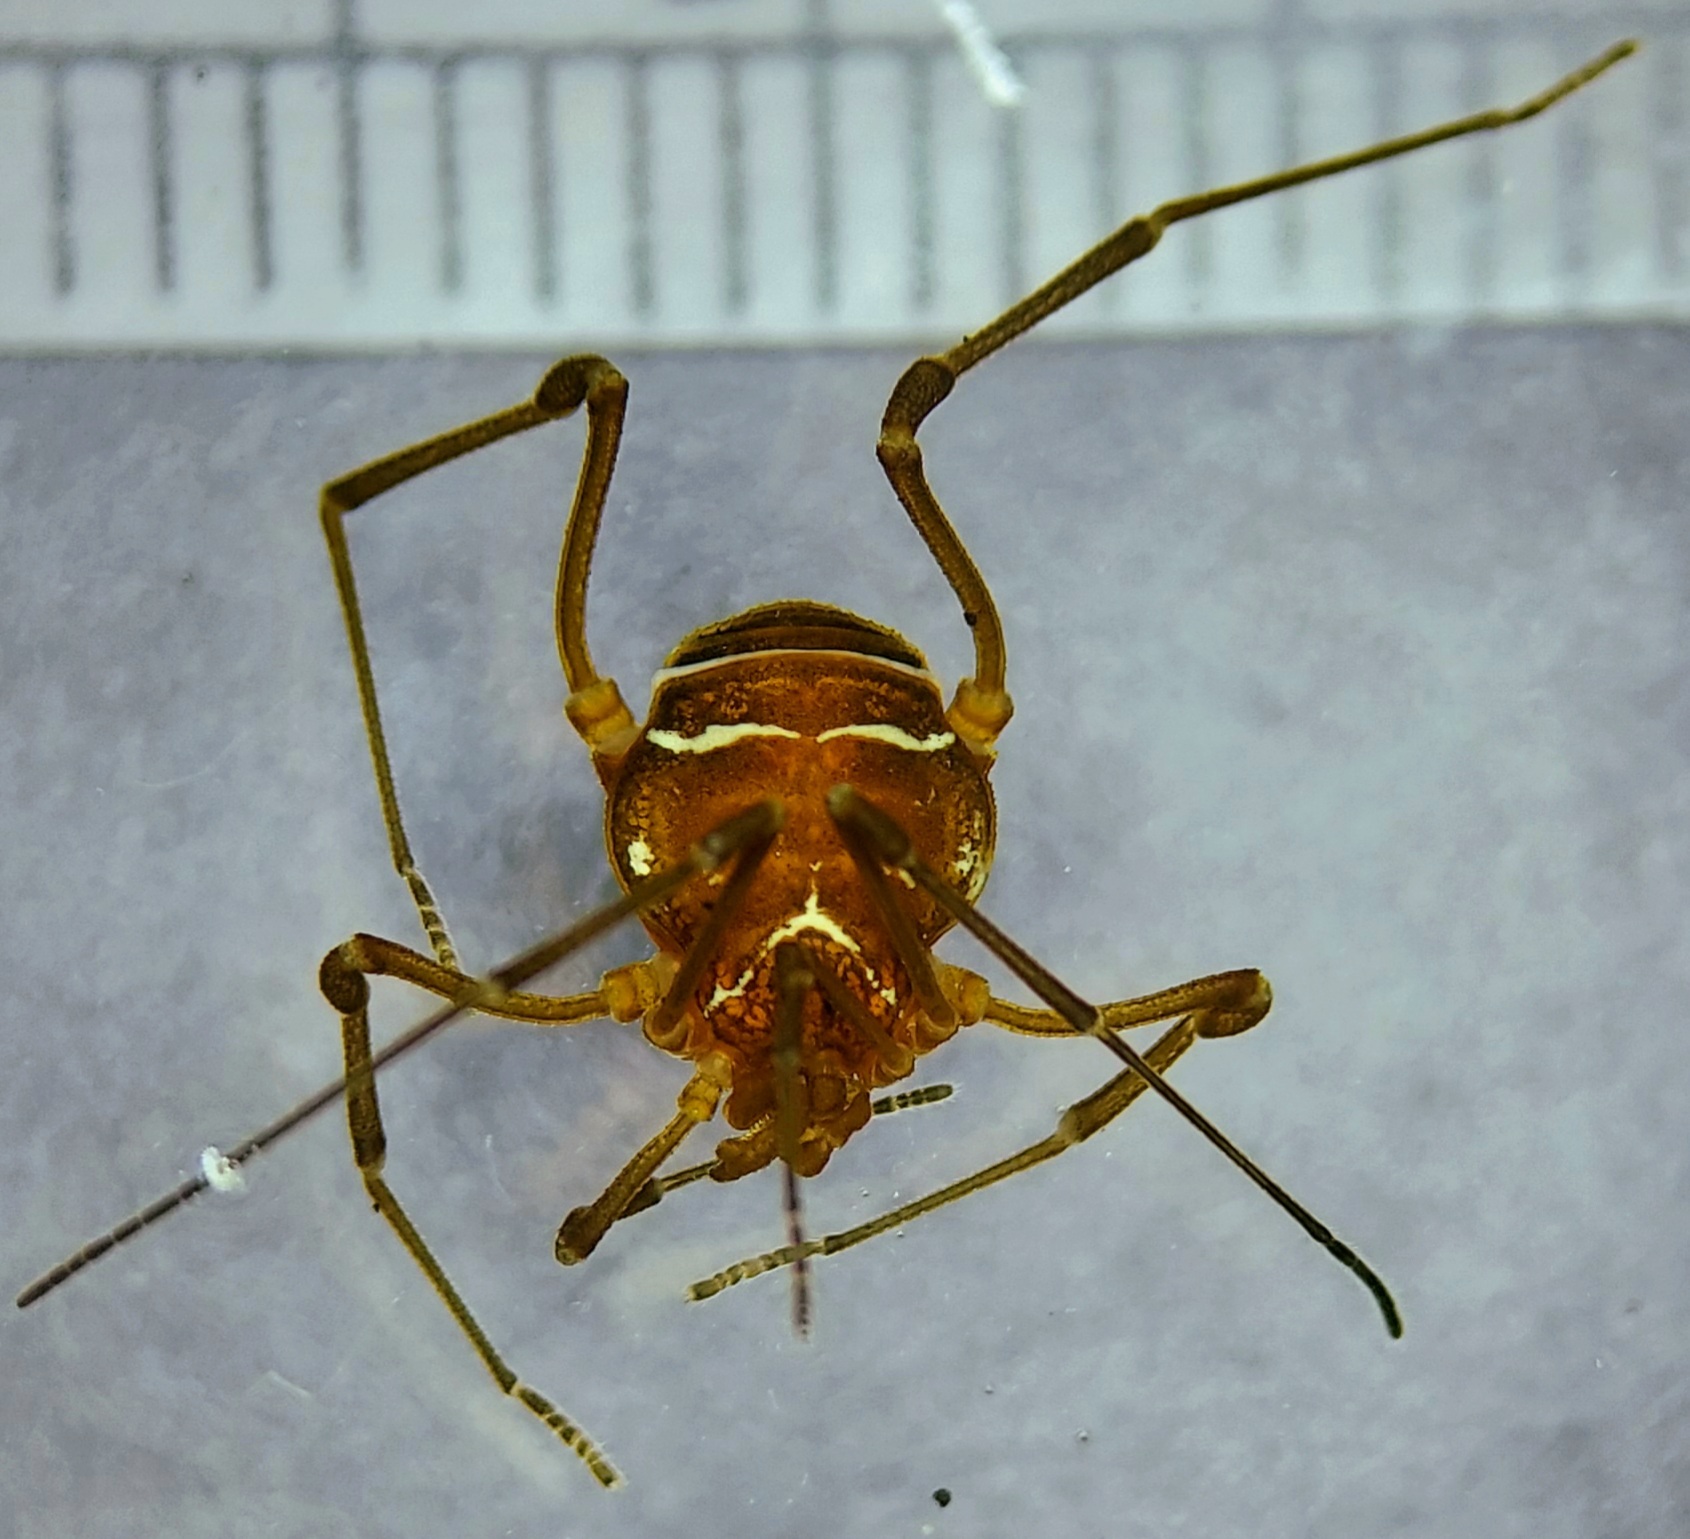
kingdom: Animalia
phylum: Arthropoda
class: Arachnida
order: Opiliones
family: Cosmetidae
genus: Libitioides
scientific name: Libitioides sayi
